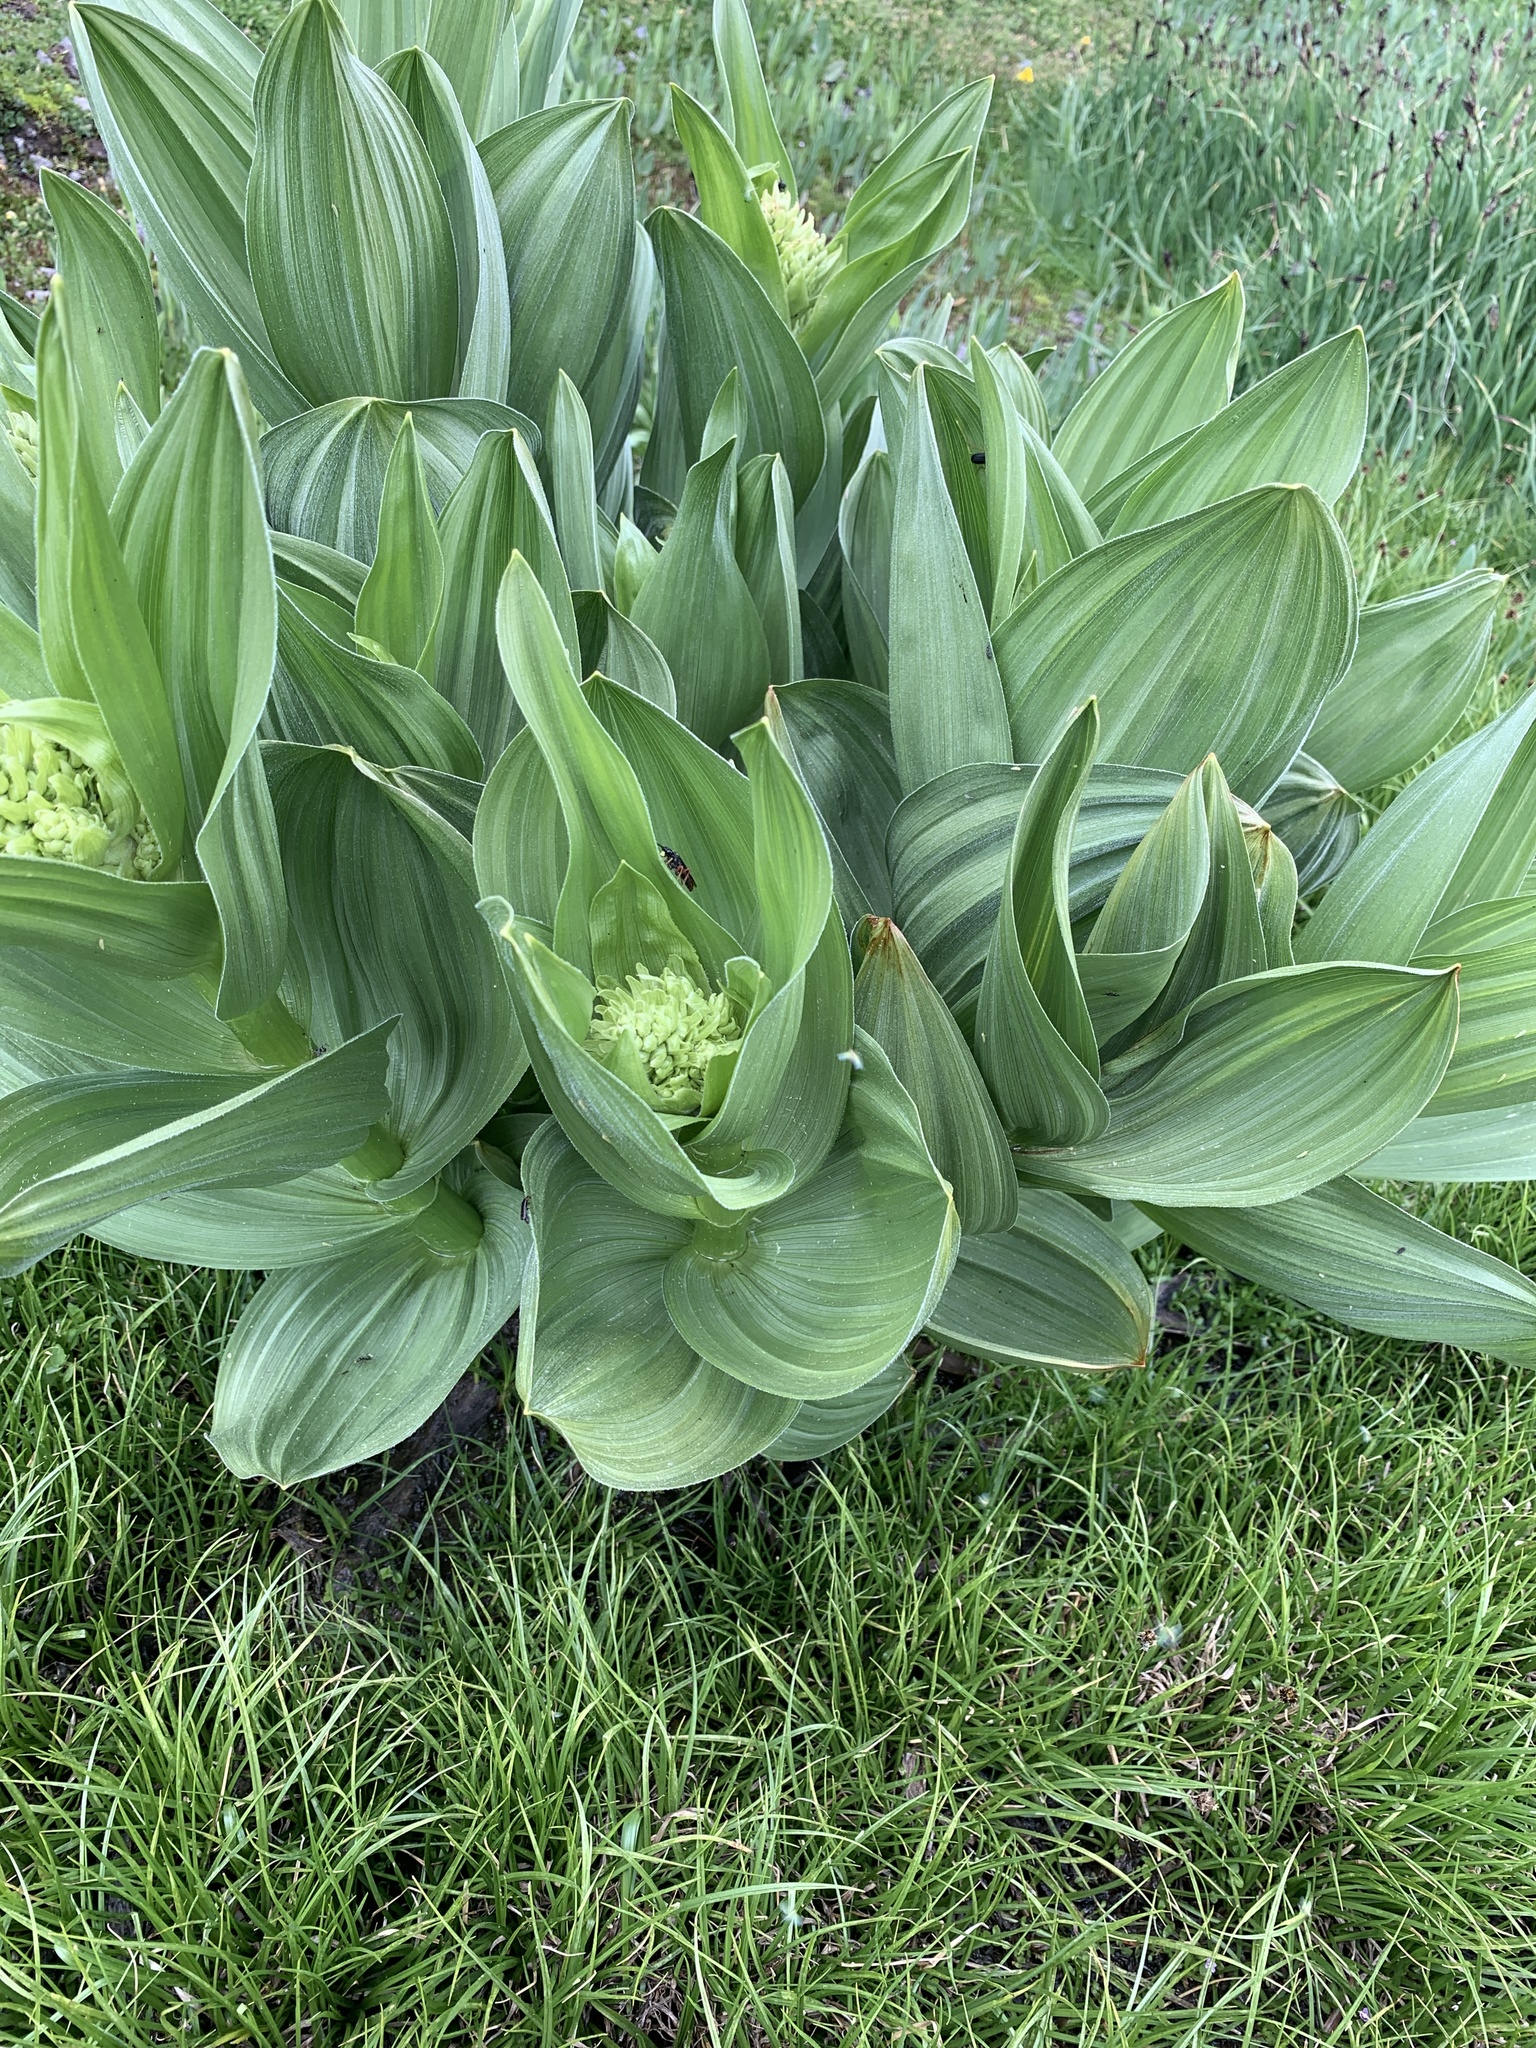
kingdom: Plantae
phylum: Tracheophyta
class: Liliopsida
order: Liliales
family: Melanthiaceae
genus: Veratrum
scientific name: Veratrum californicum
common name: California veratrum
